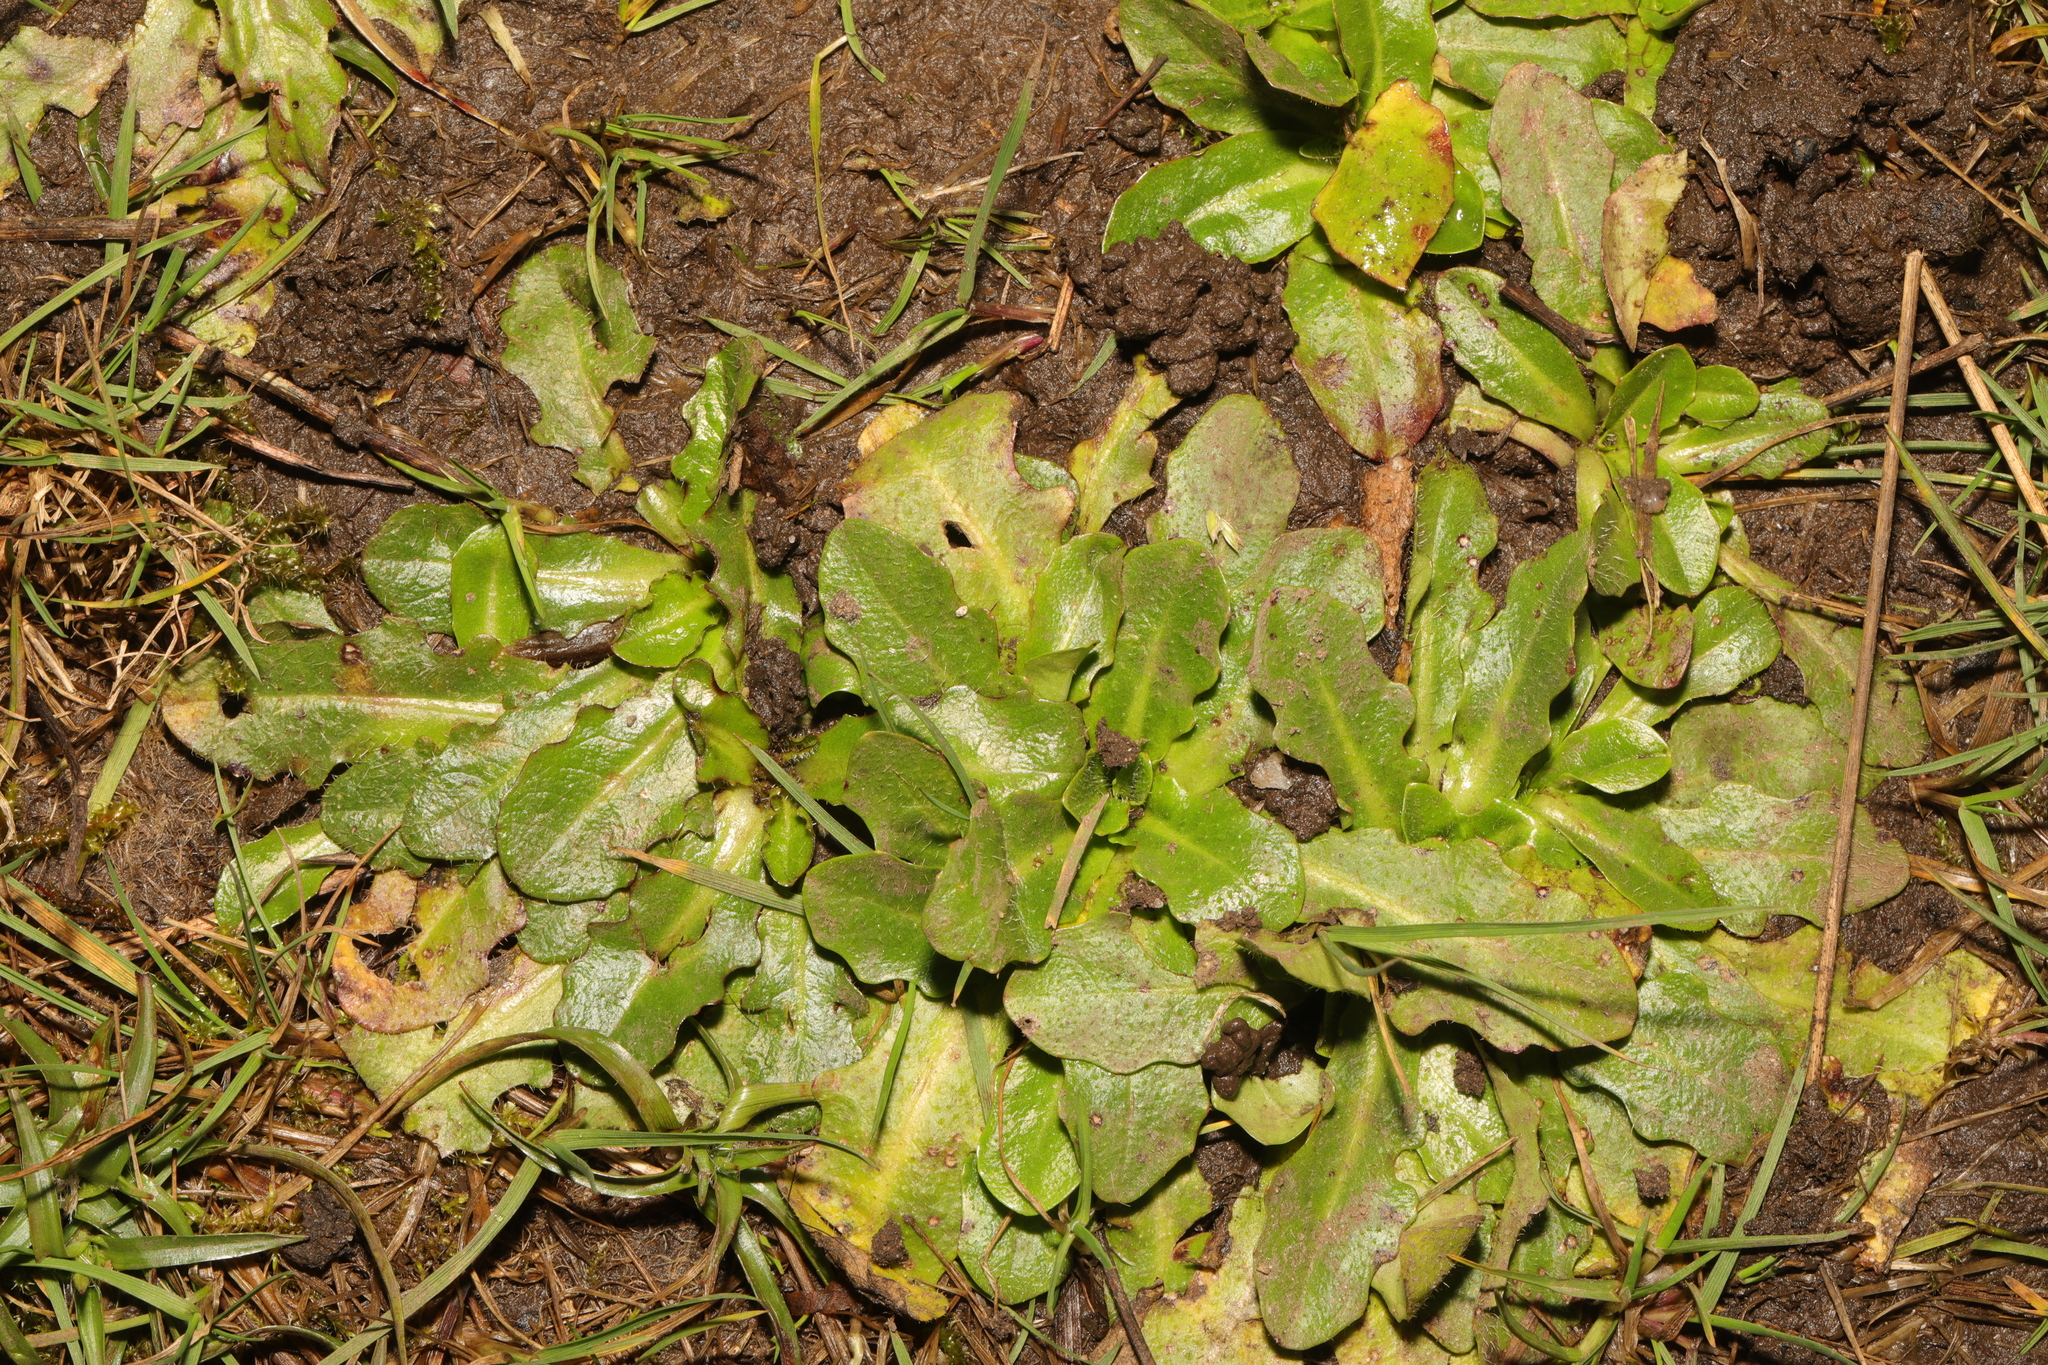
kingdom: Plantae
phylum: Tracheophyta
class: Magnoliopsida
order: Asterales
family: Asteraceae
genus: Hypochaeris
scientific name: Hypochaeris radicata
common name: Flatweed
